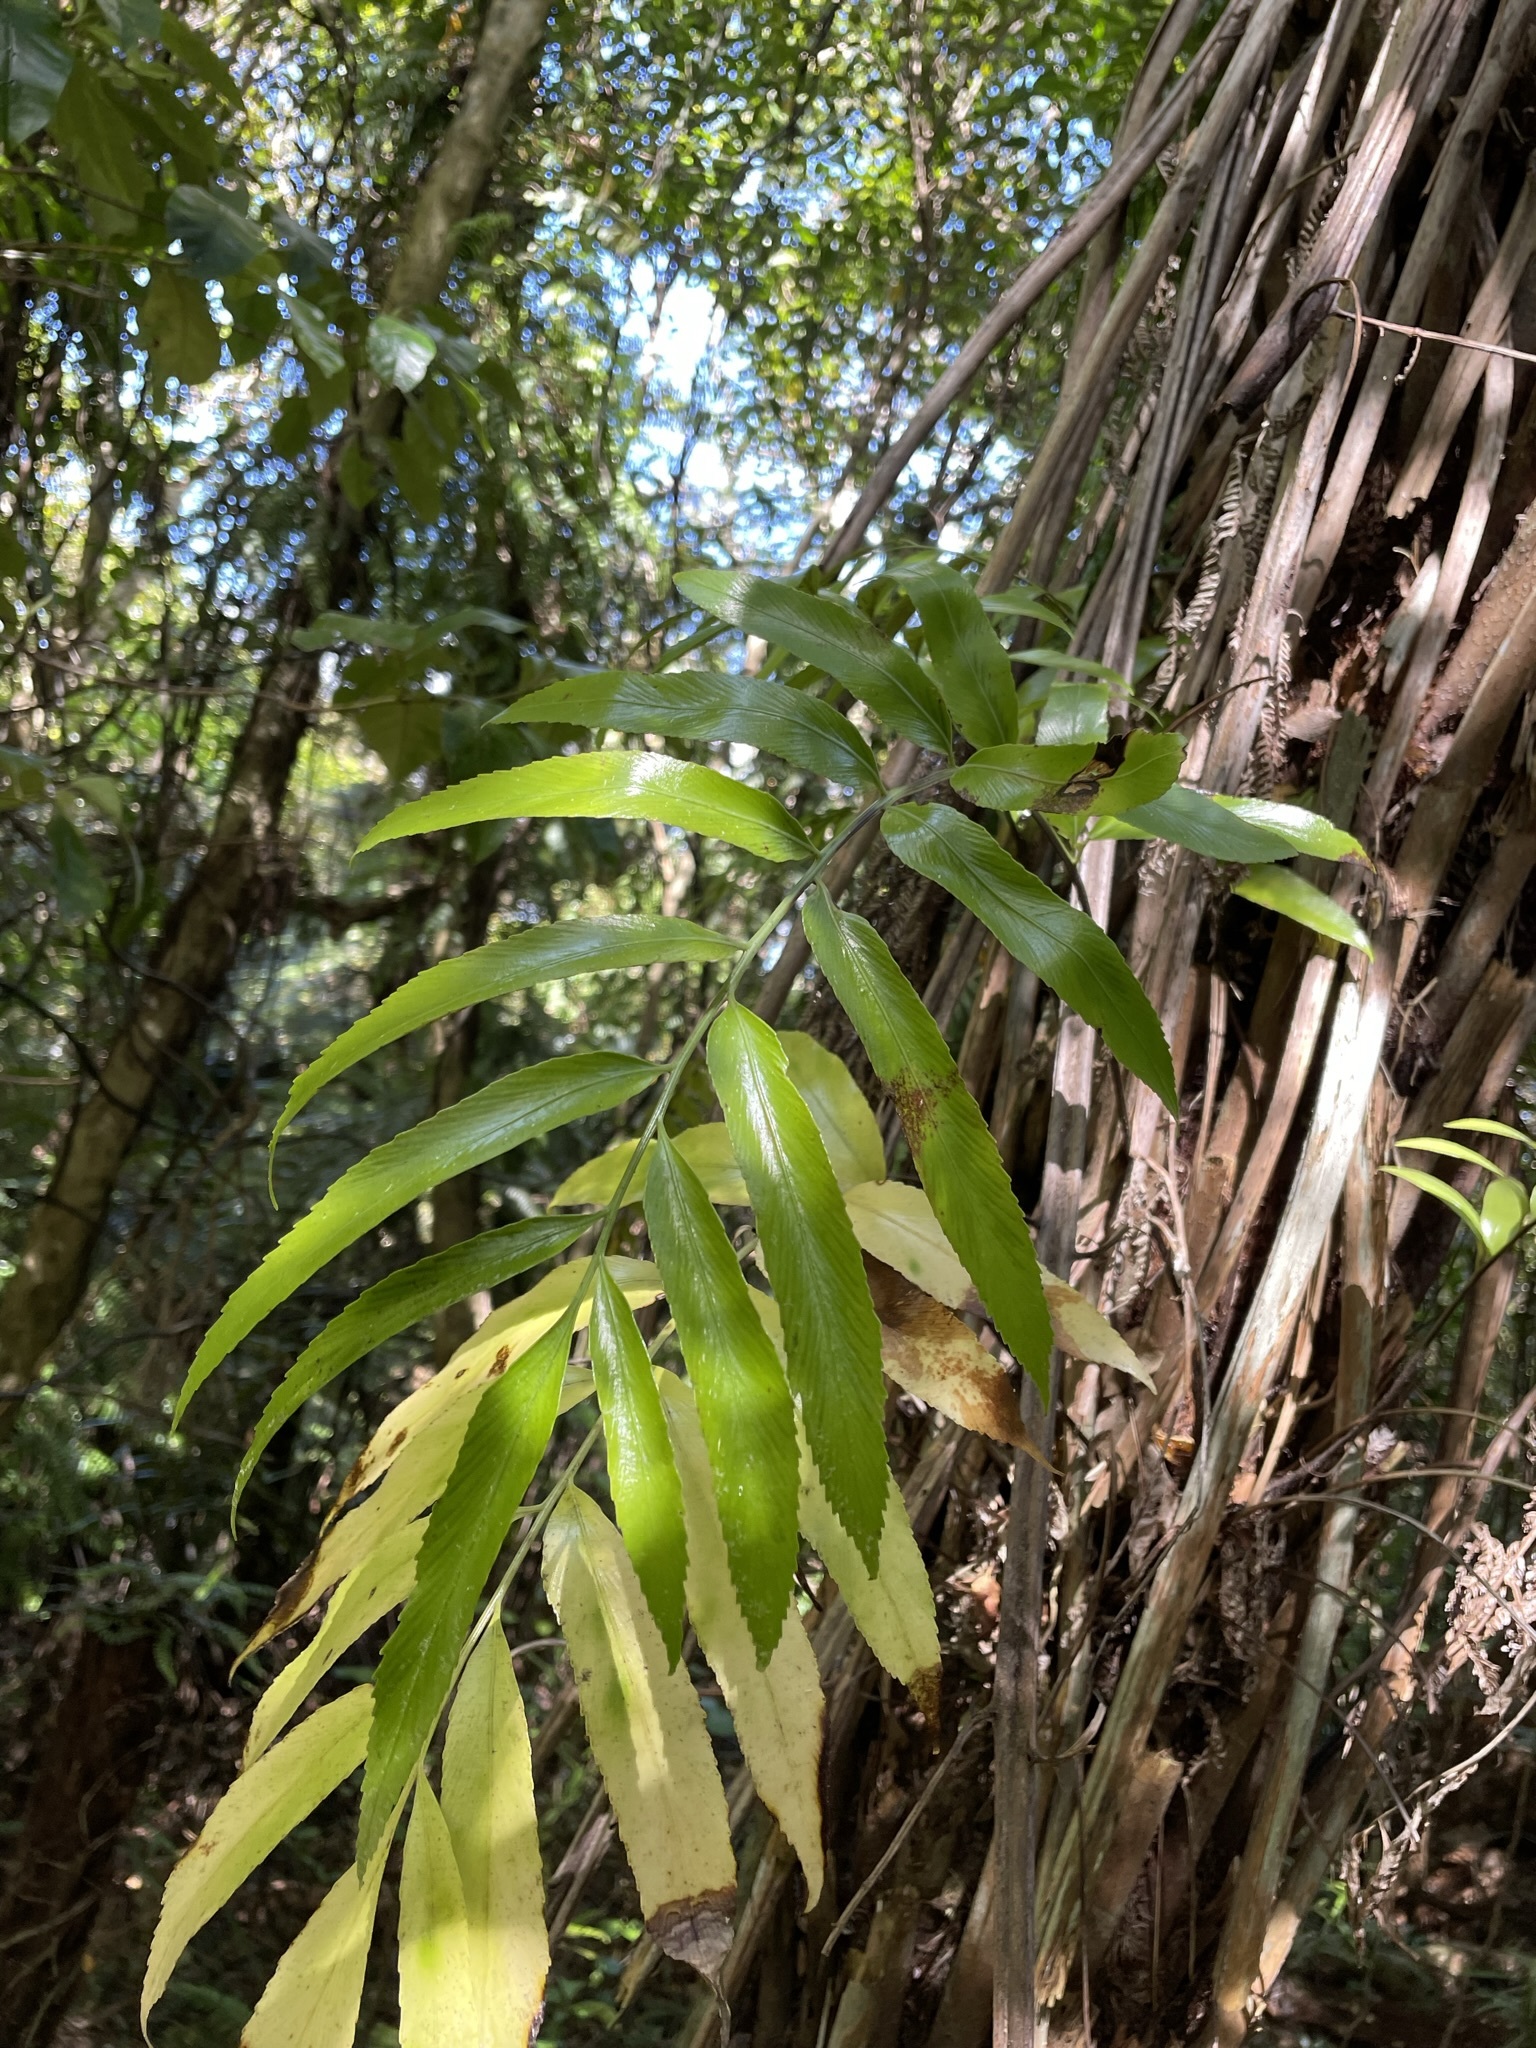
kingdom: Plantae
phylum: Tracheophyta
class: Polypodiopsida
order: Polypodiales
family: Aspleniaceae
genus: Asplenium
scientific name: Asplenium oblongifolium
